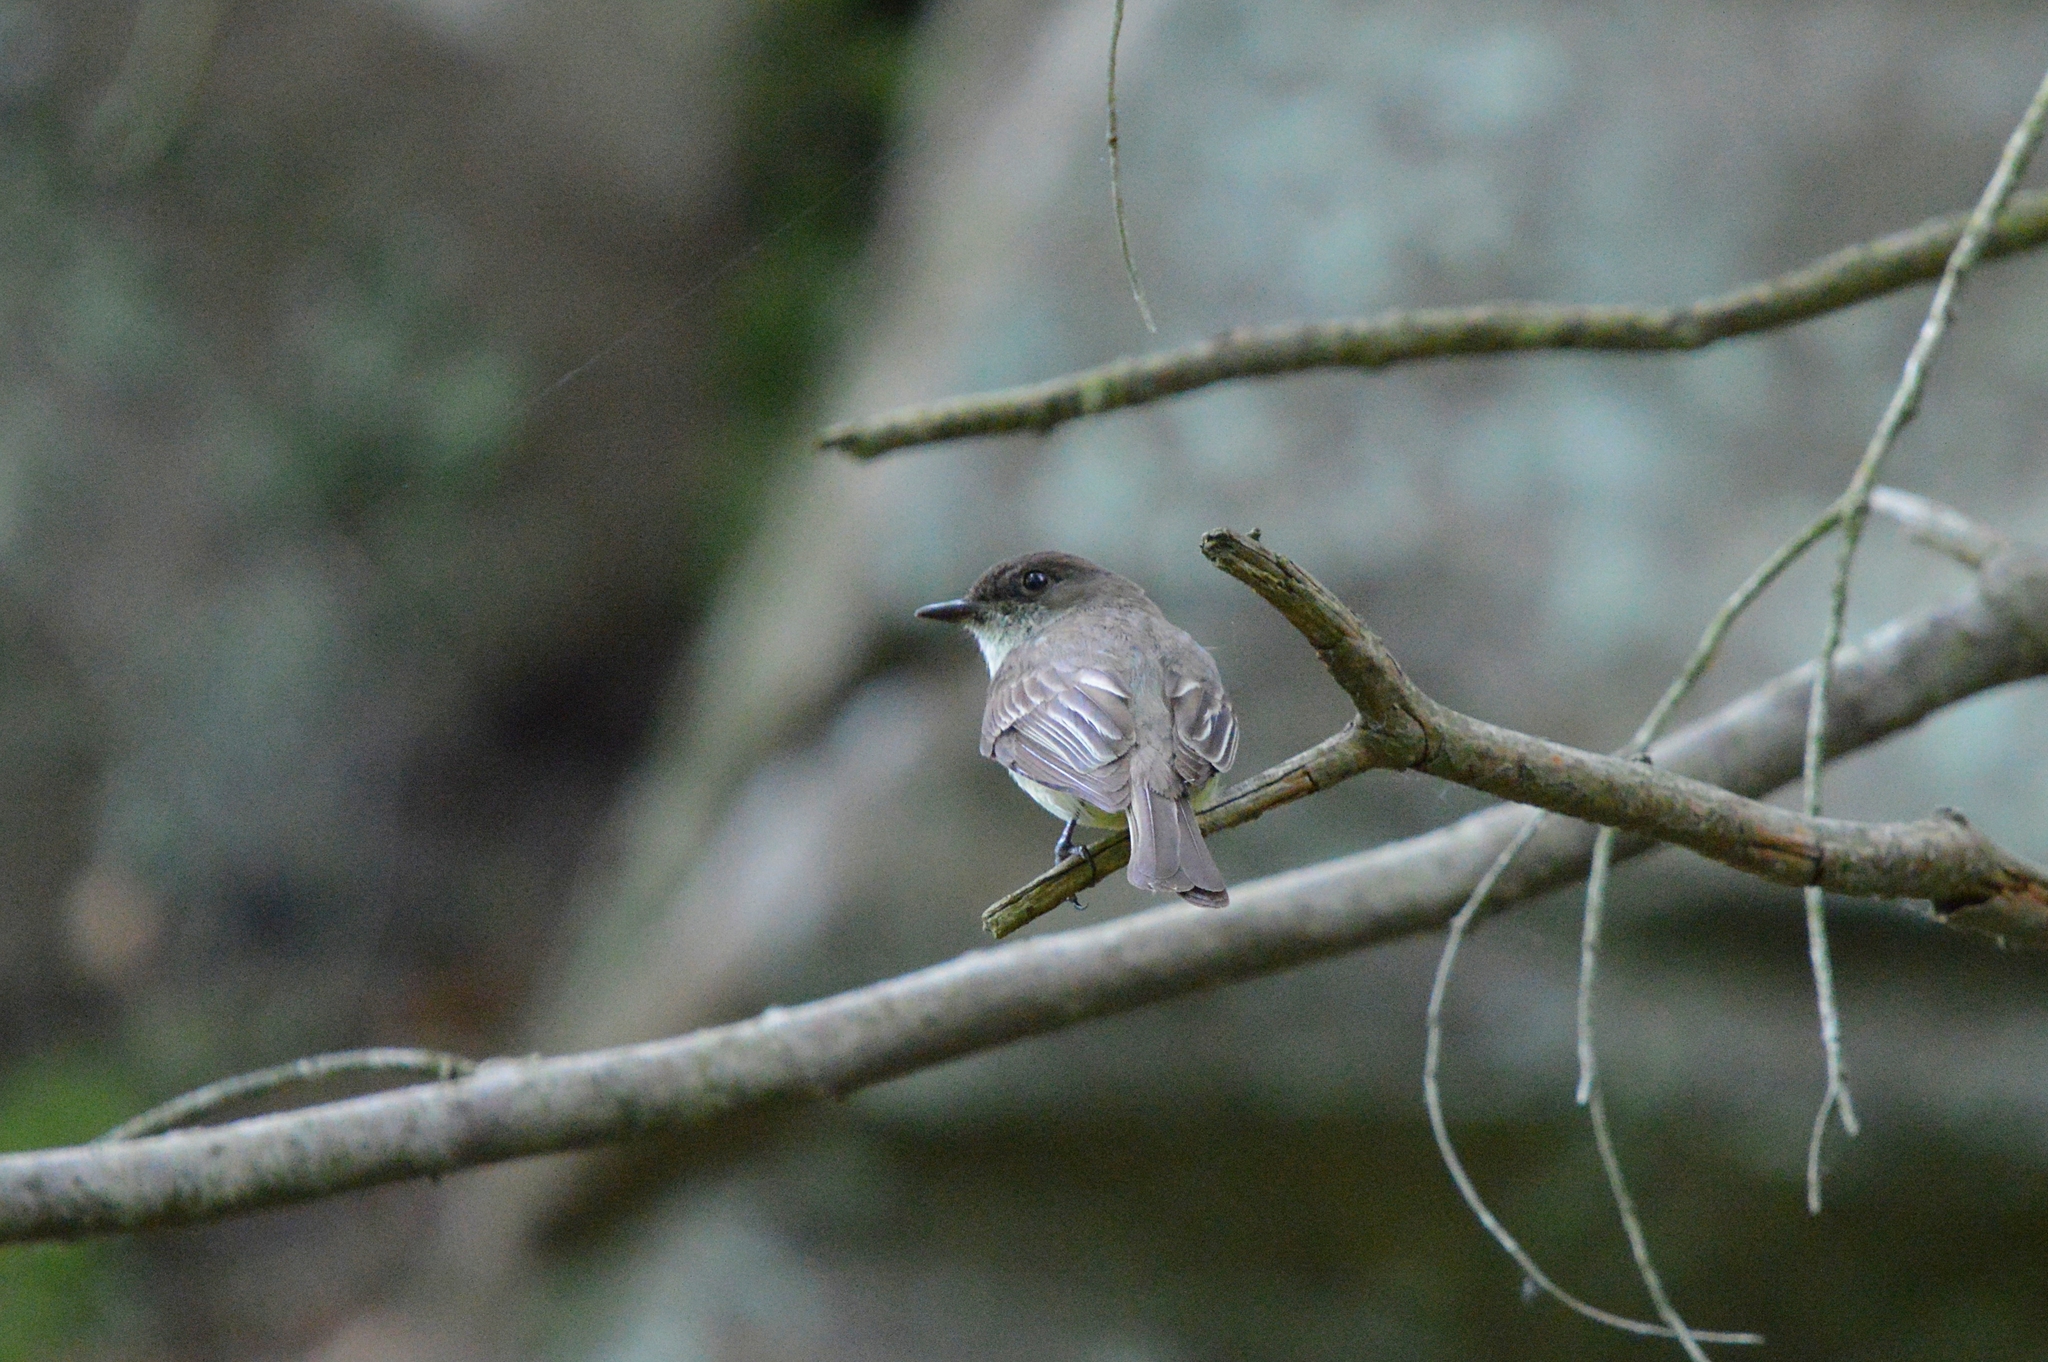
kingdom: Animalia
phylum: Chordata
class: Aves
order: Passeriformes
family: Tyrannidae
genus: Sayornis
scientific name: Sayornis phoebe
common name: Eastern phoebe
